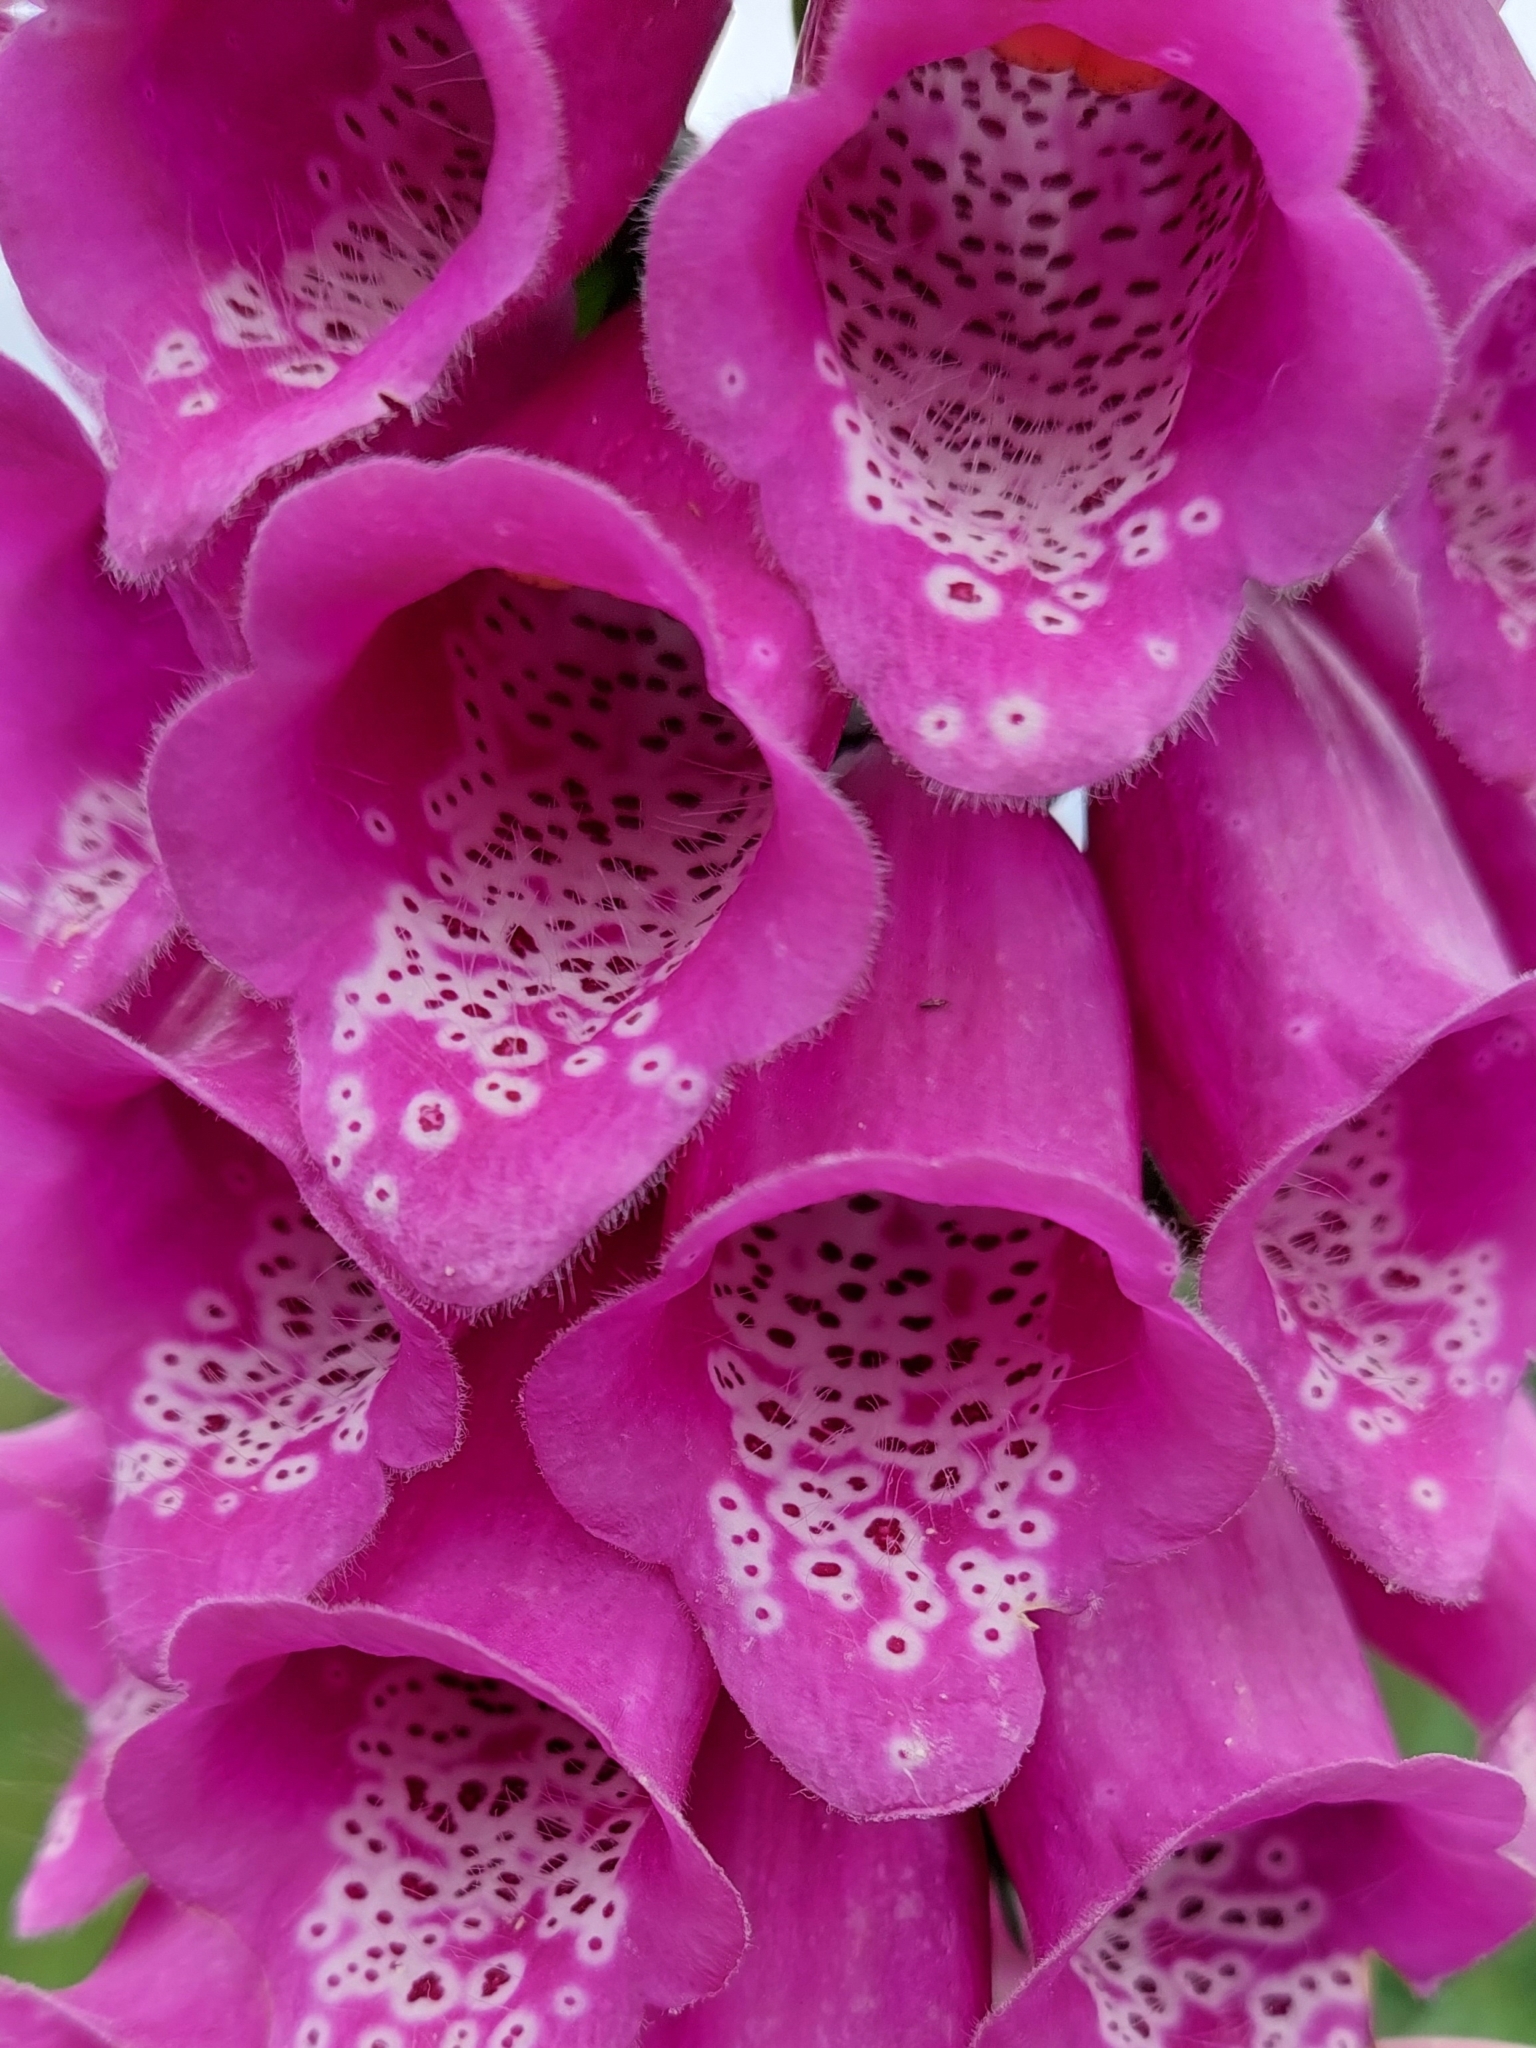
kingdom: Plantae
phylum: Tracheophyta
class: Magnoliopsida
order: Lamiales
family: Plantaginaceae
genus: Digitalis
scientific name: Digitalis purpurea
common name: Foxglove
